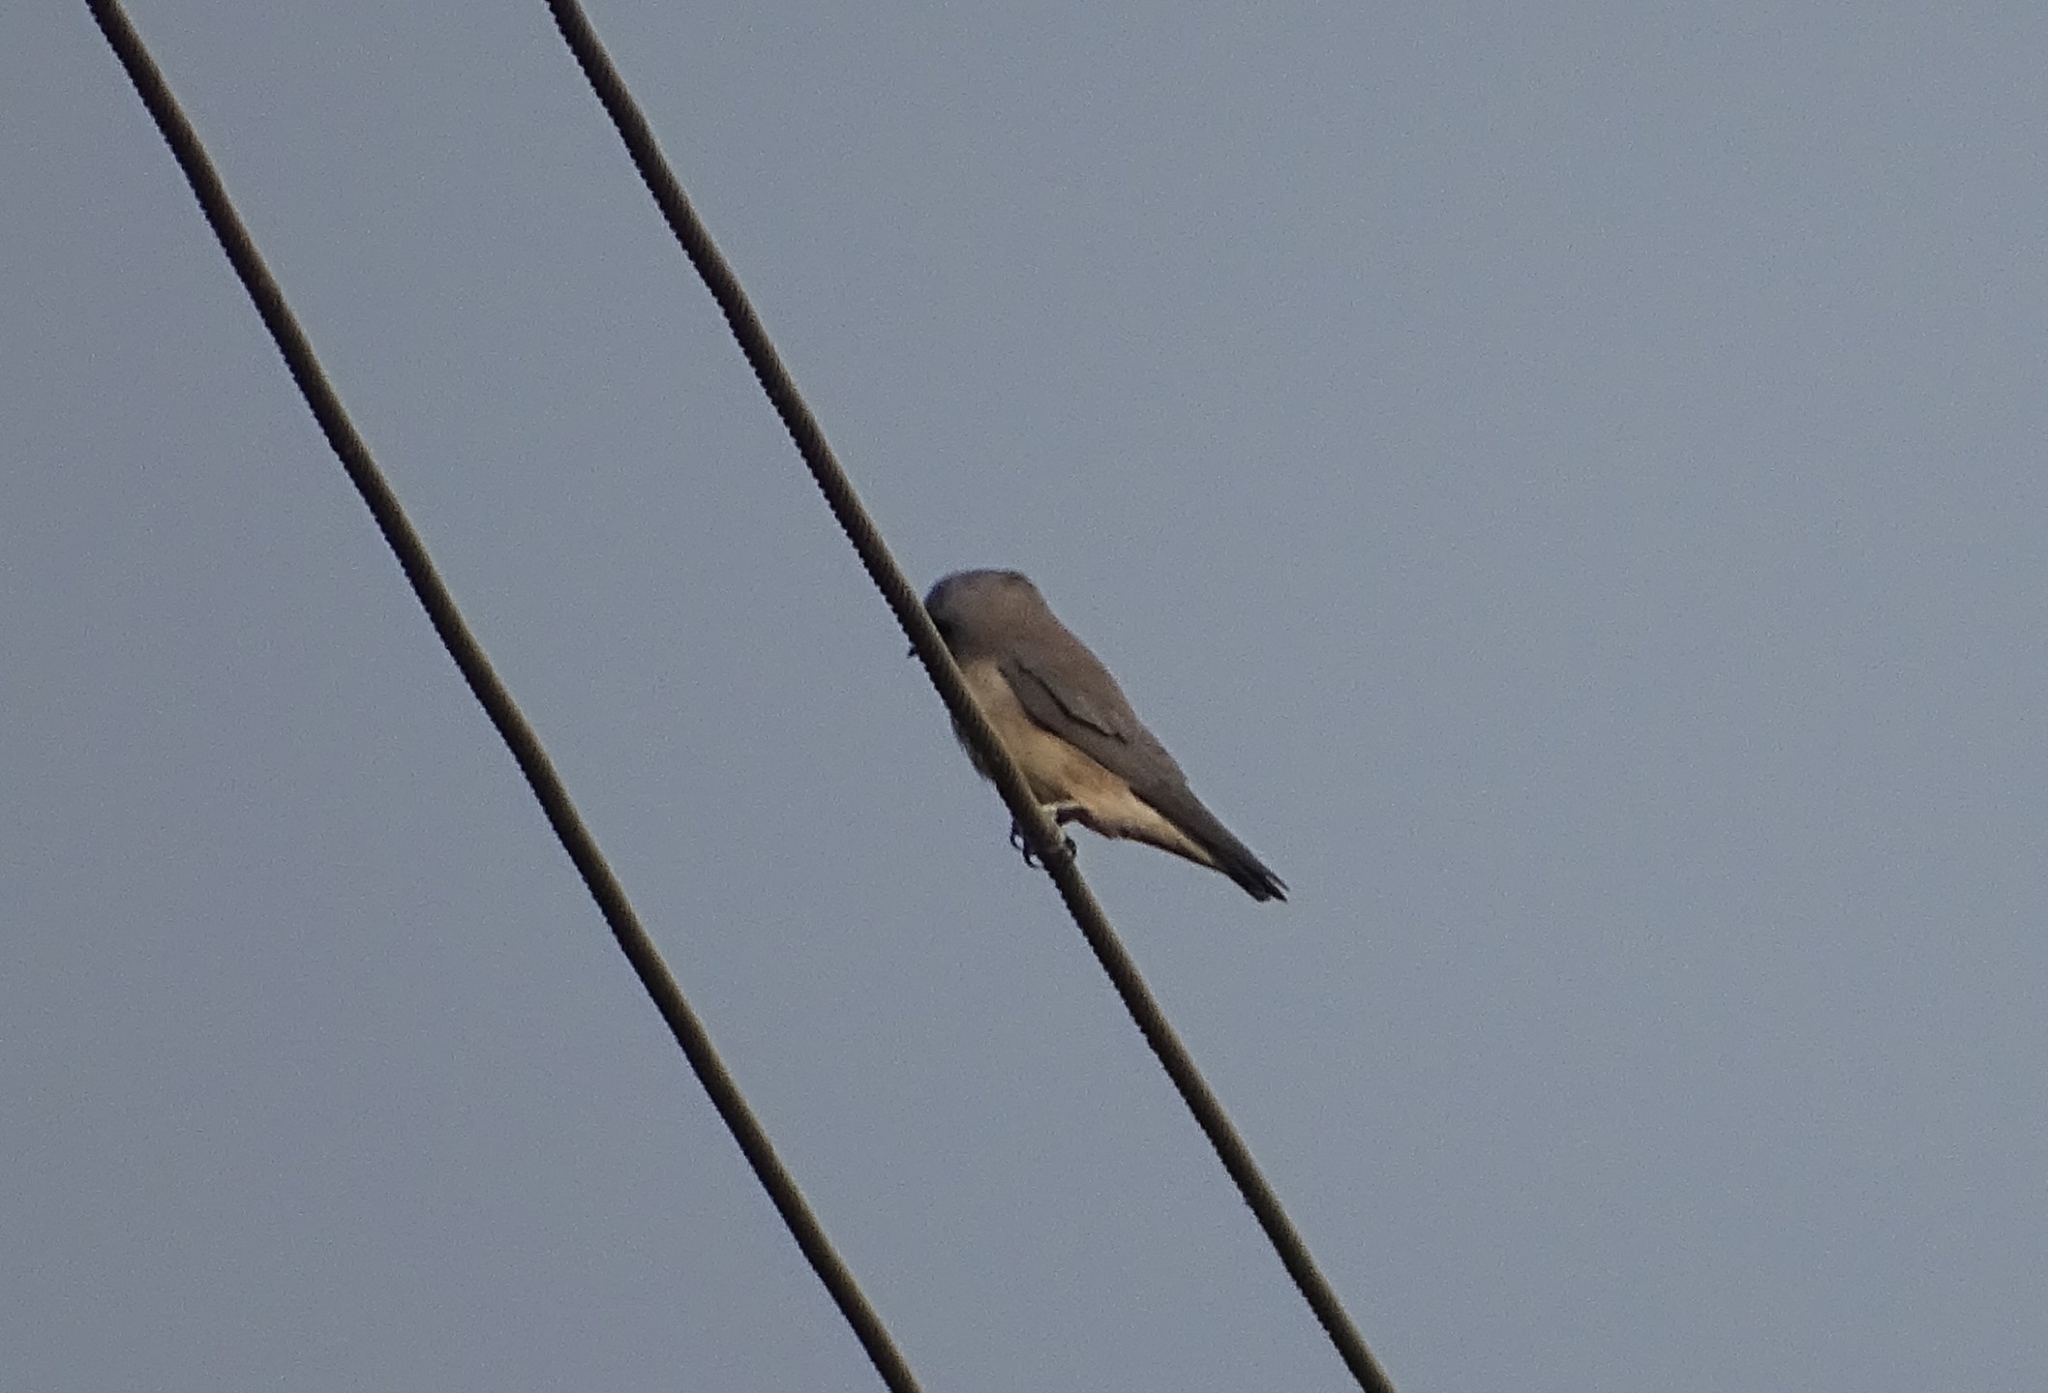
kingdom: Animalia
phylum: Chordata
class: Aves
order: Passeriformes
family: Artamidae
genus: Artamus
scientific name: Artamus fuscus
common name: Ashy woodswallow
